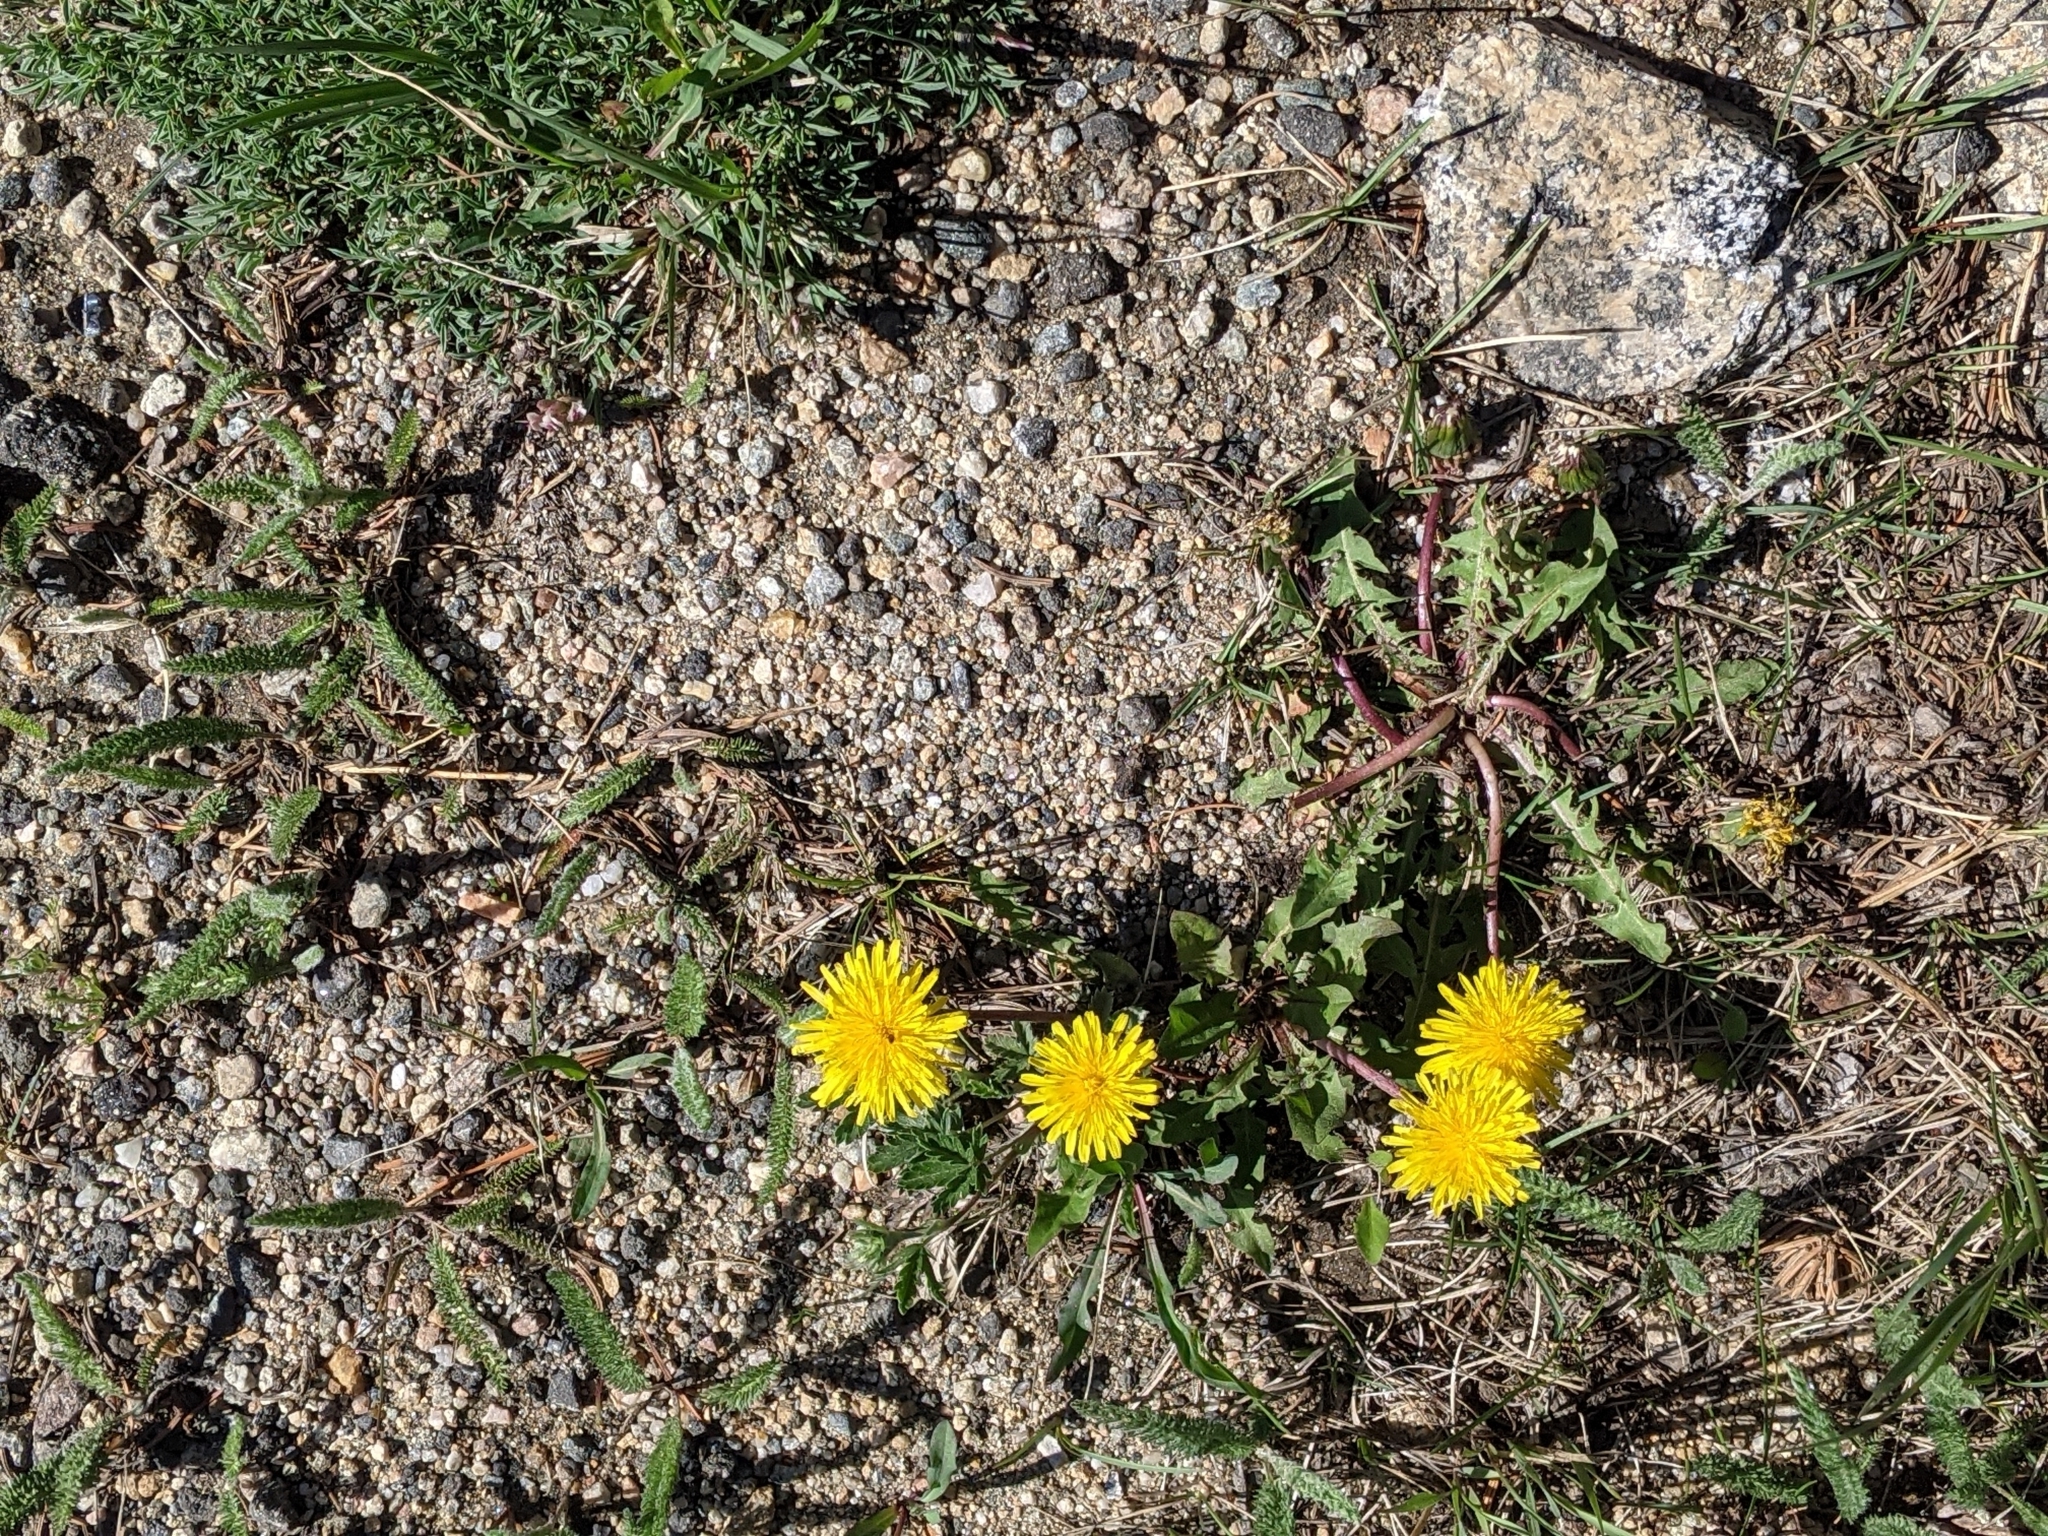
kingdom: Plantae
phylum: Tracheophyta
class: Magnoliopsida
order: Asterales
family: Asteraceae
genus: Taraxacum
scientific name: Taraxacum officinale
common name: Common dandelion
